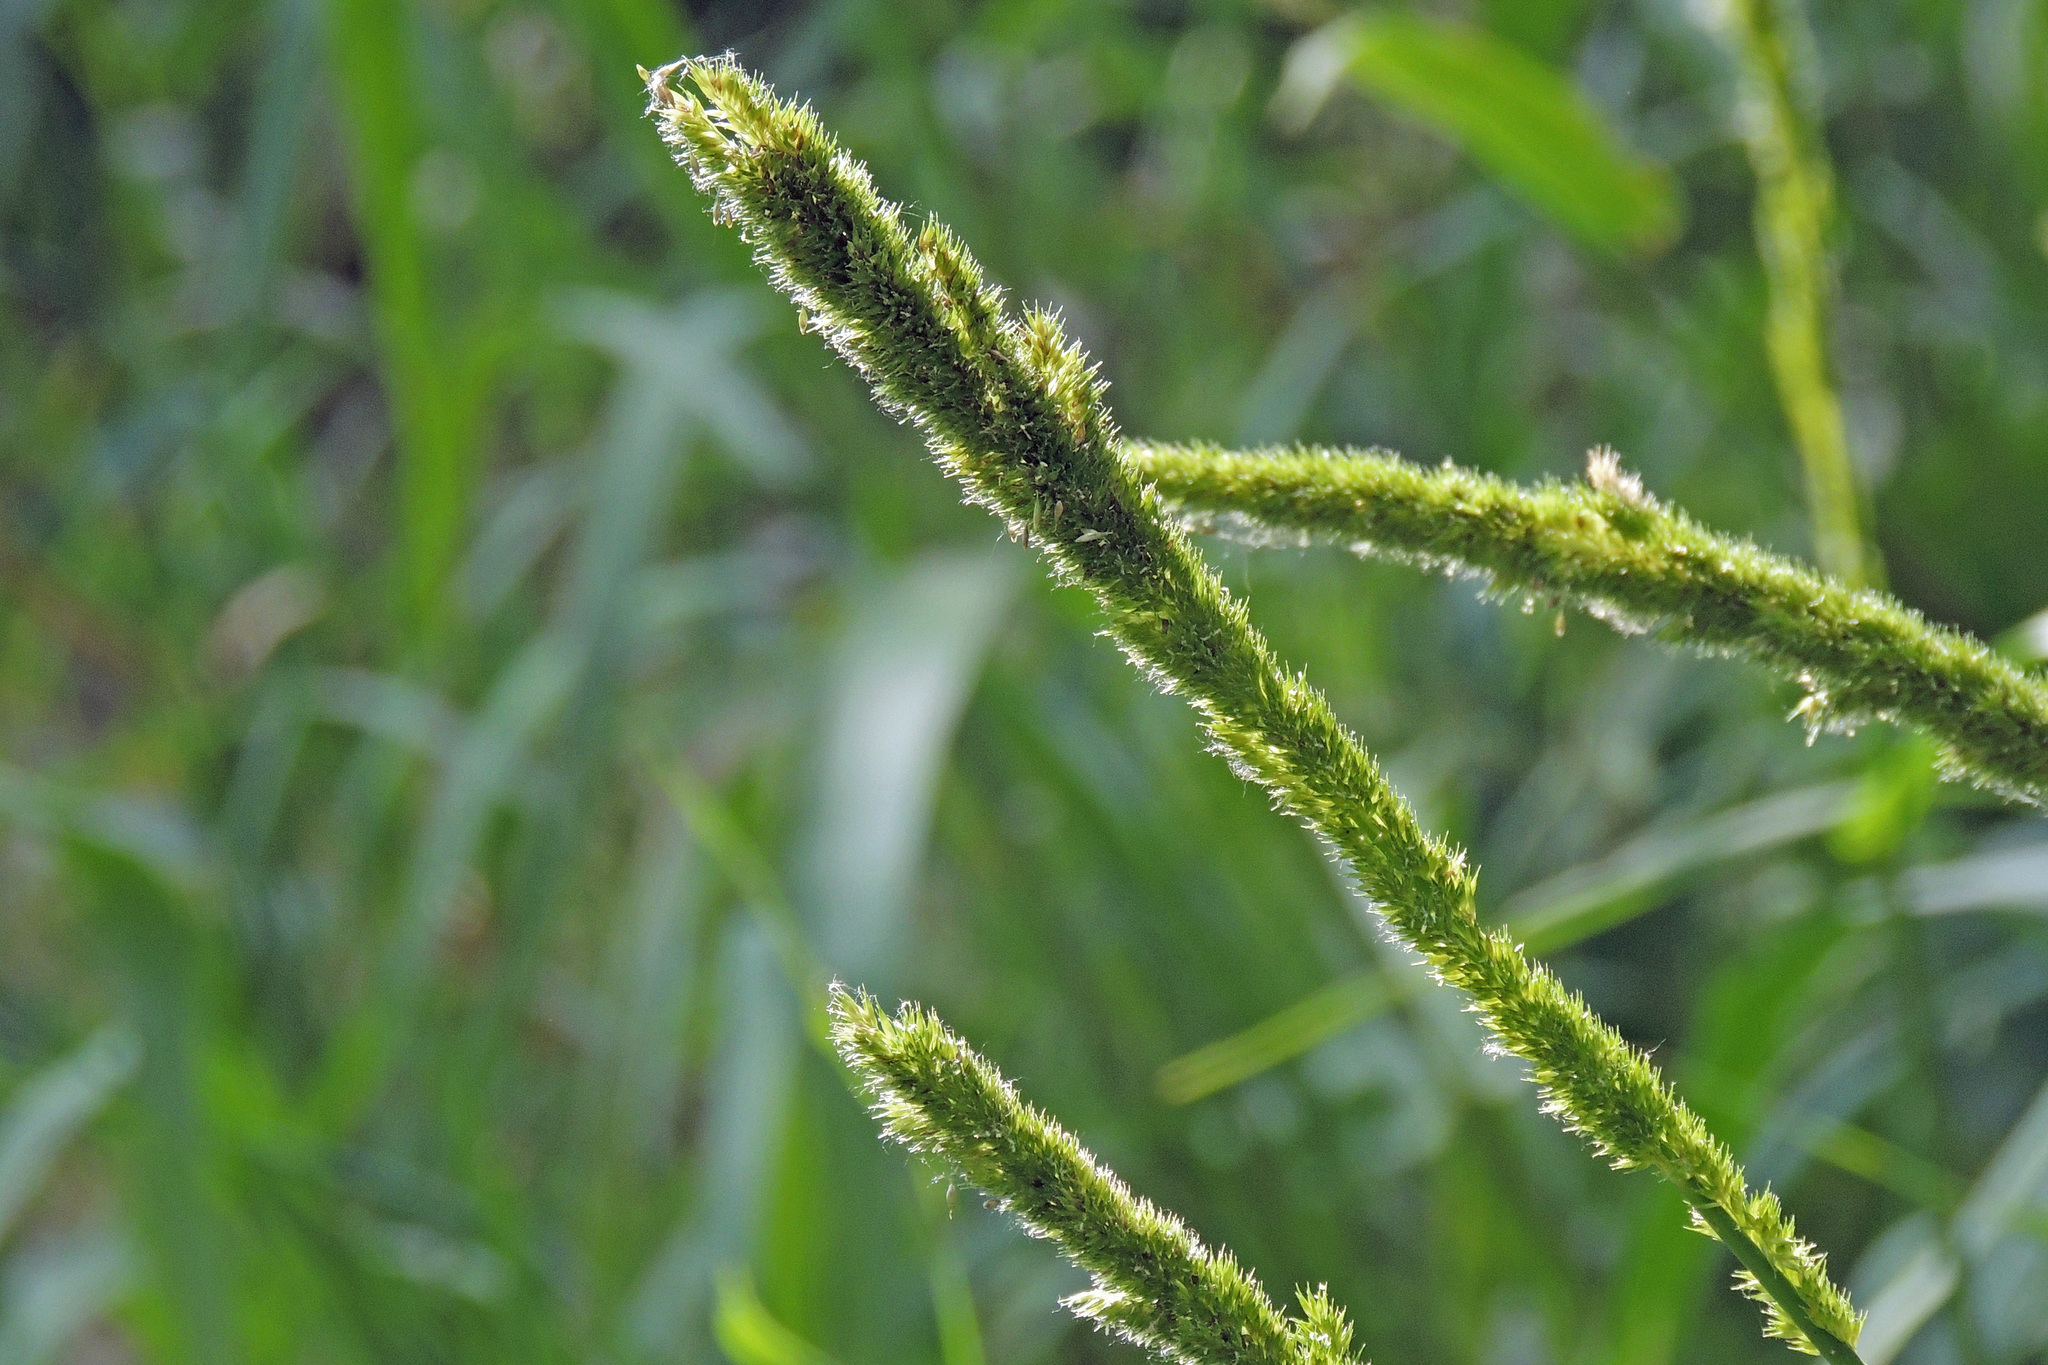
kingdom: Plantae
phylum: Tracheophyta
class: Liliopsida
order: Poales
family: Poaceae
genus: Sporobolus
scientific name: Sporobolus indicus
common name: Smut grass
